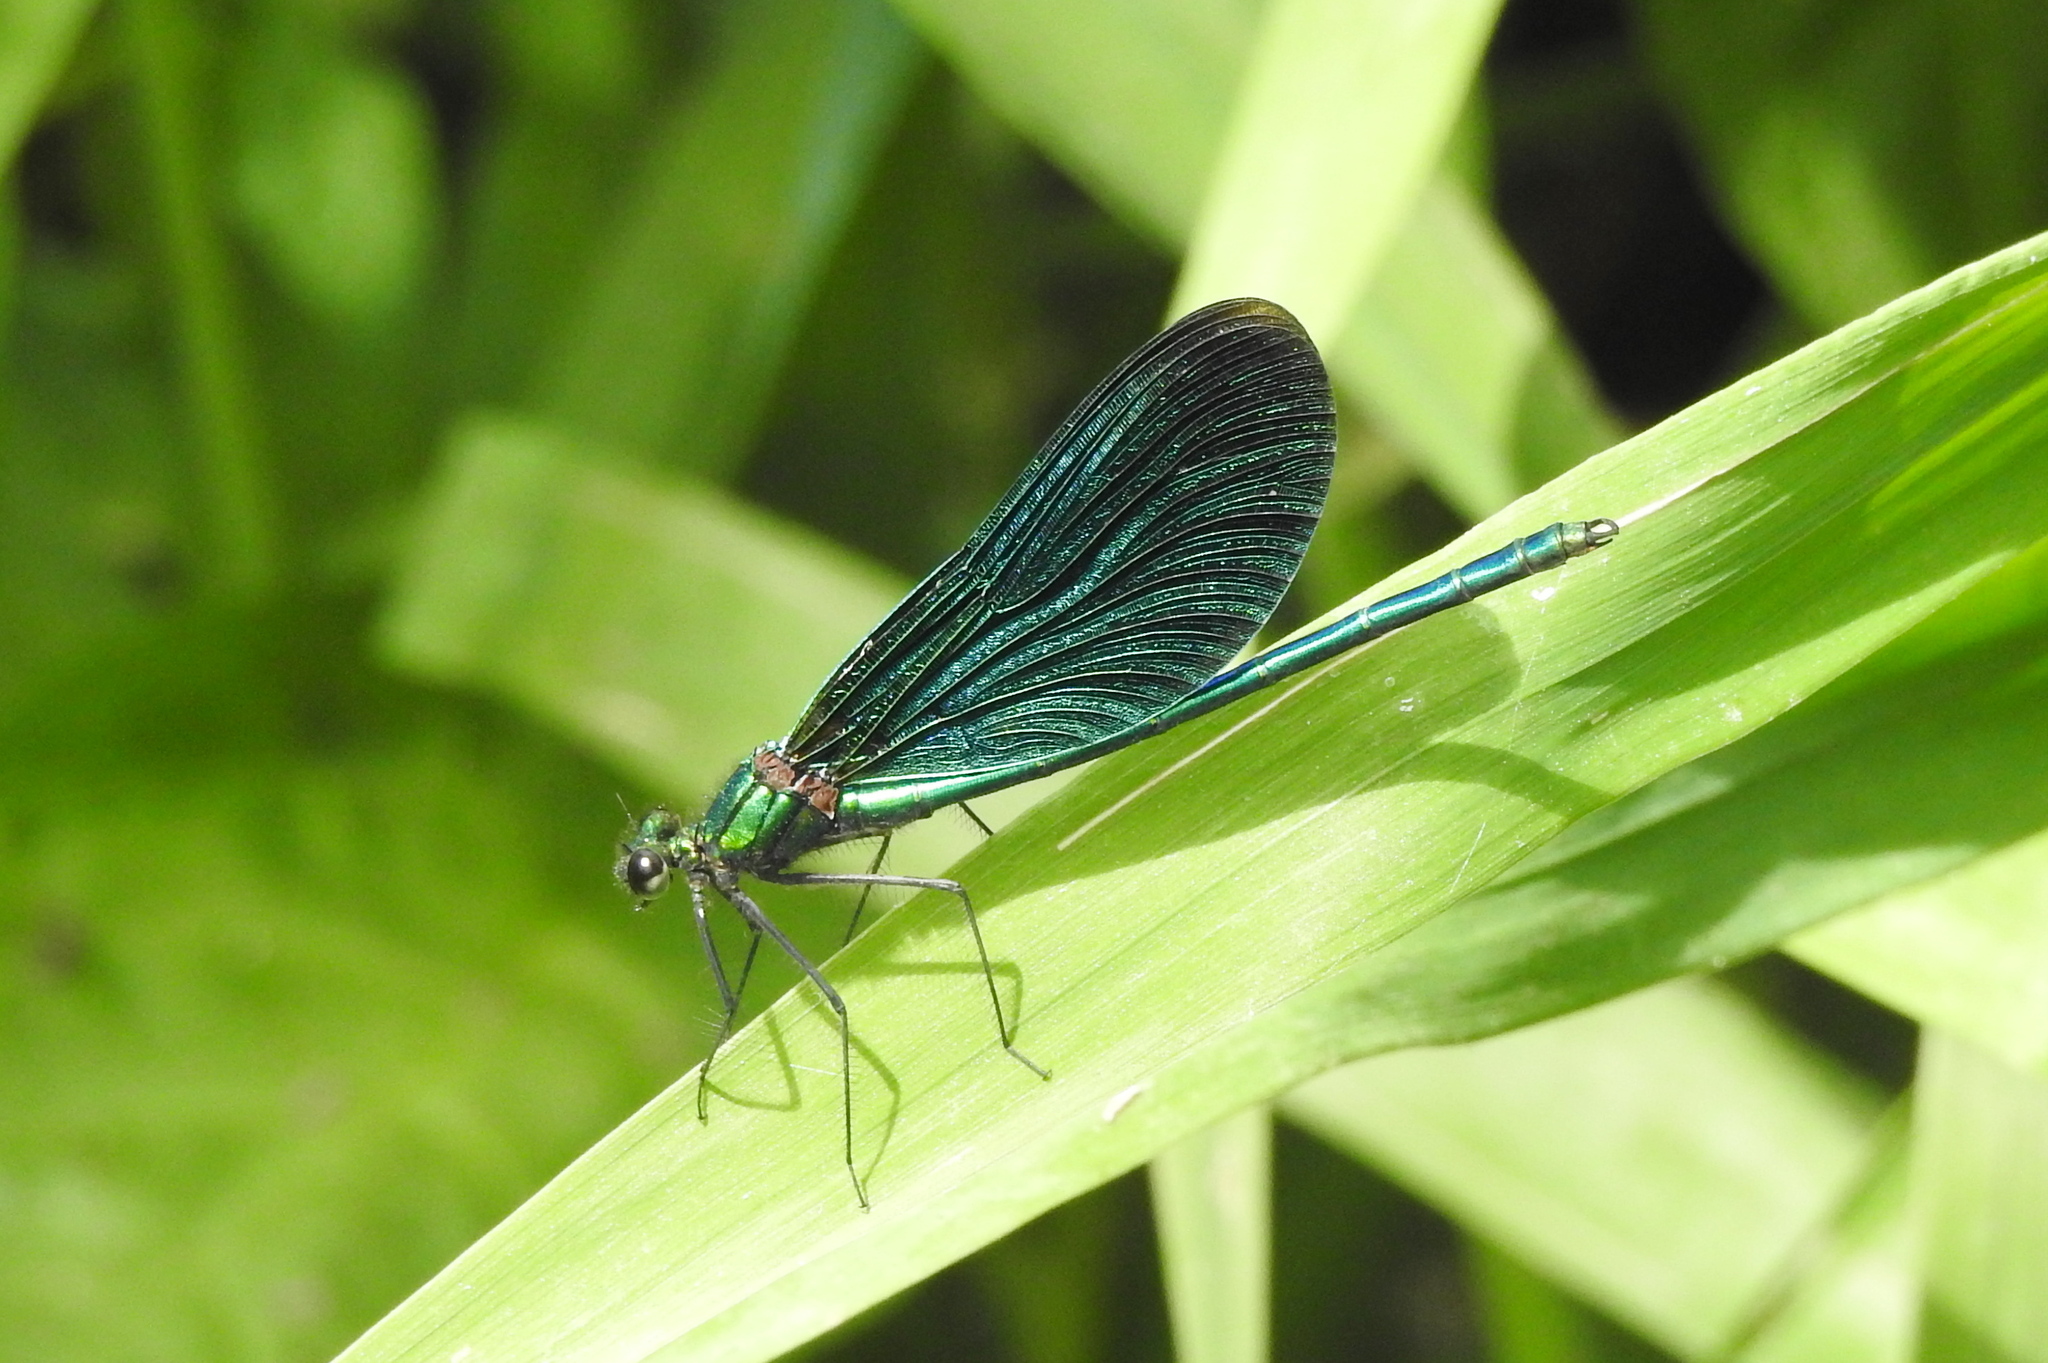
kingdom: Animalia
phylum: Arthropoda
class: Insecta
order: Odonata
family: Calopterygidae
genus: Calopteryx
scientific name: Calopteryx virgo
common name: Beautiful demoiselle
